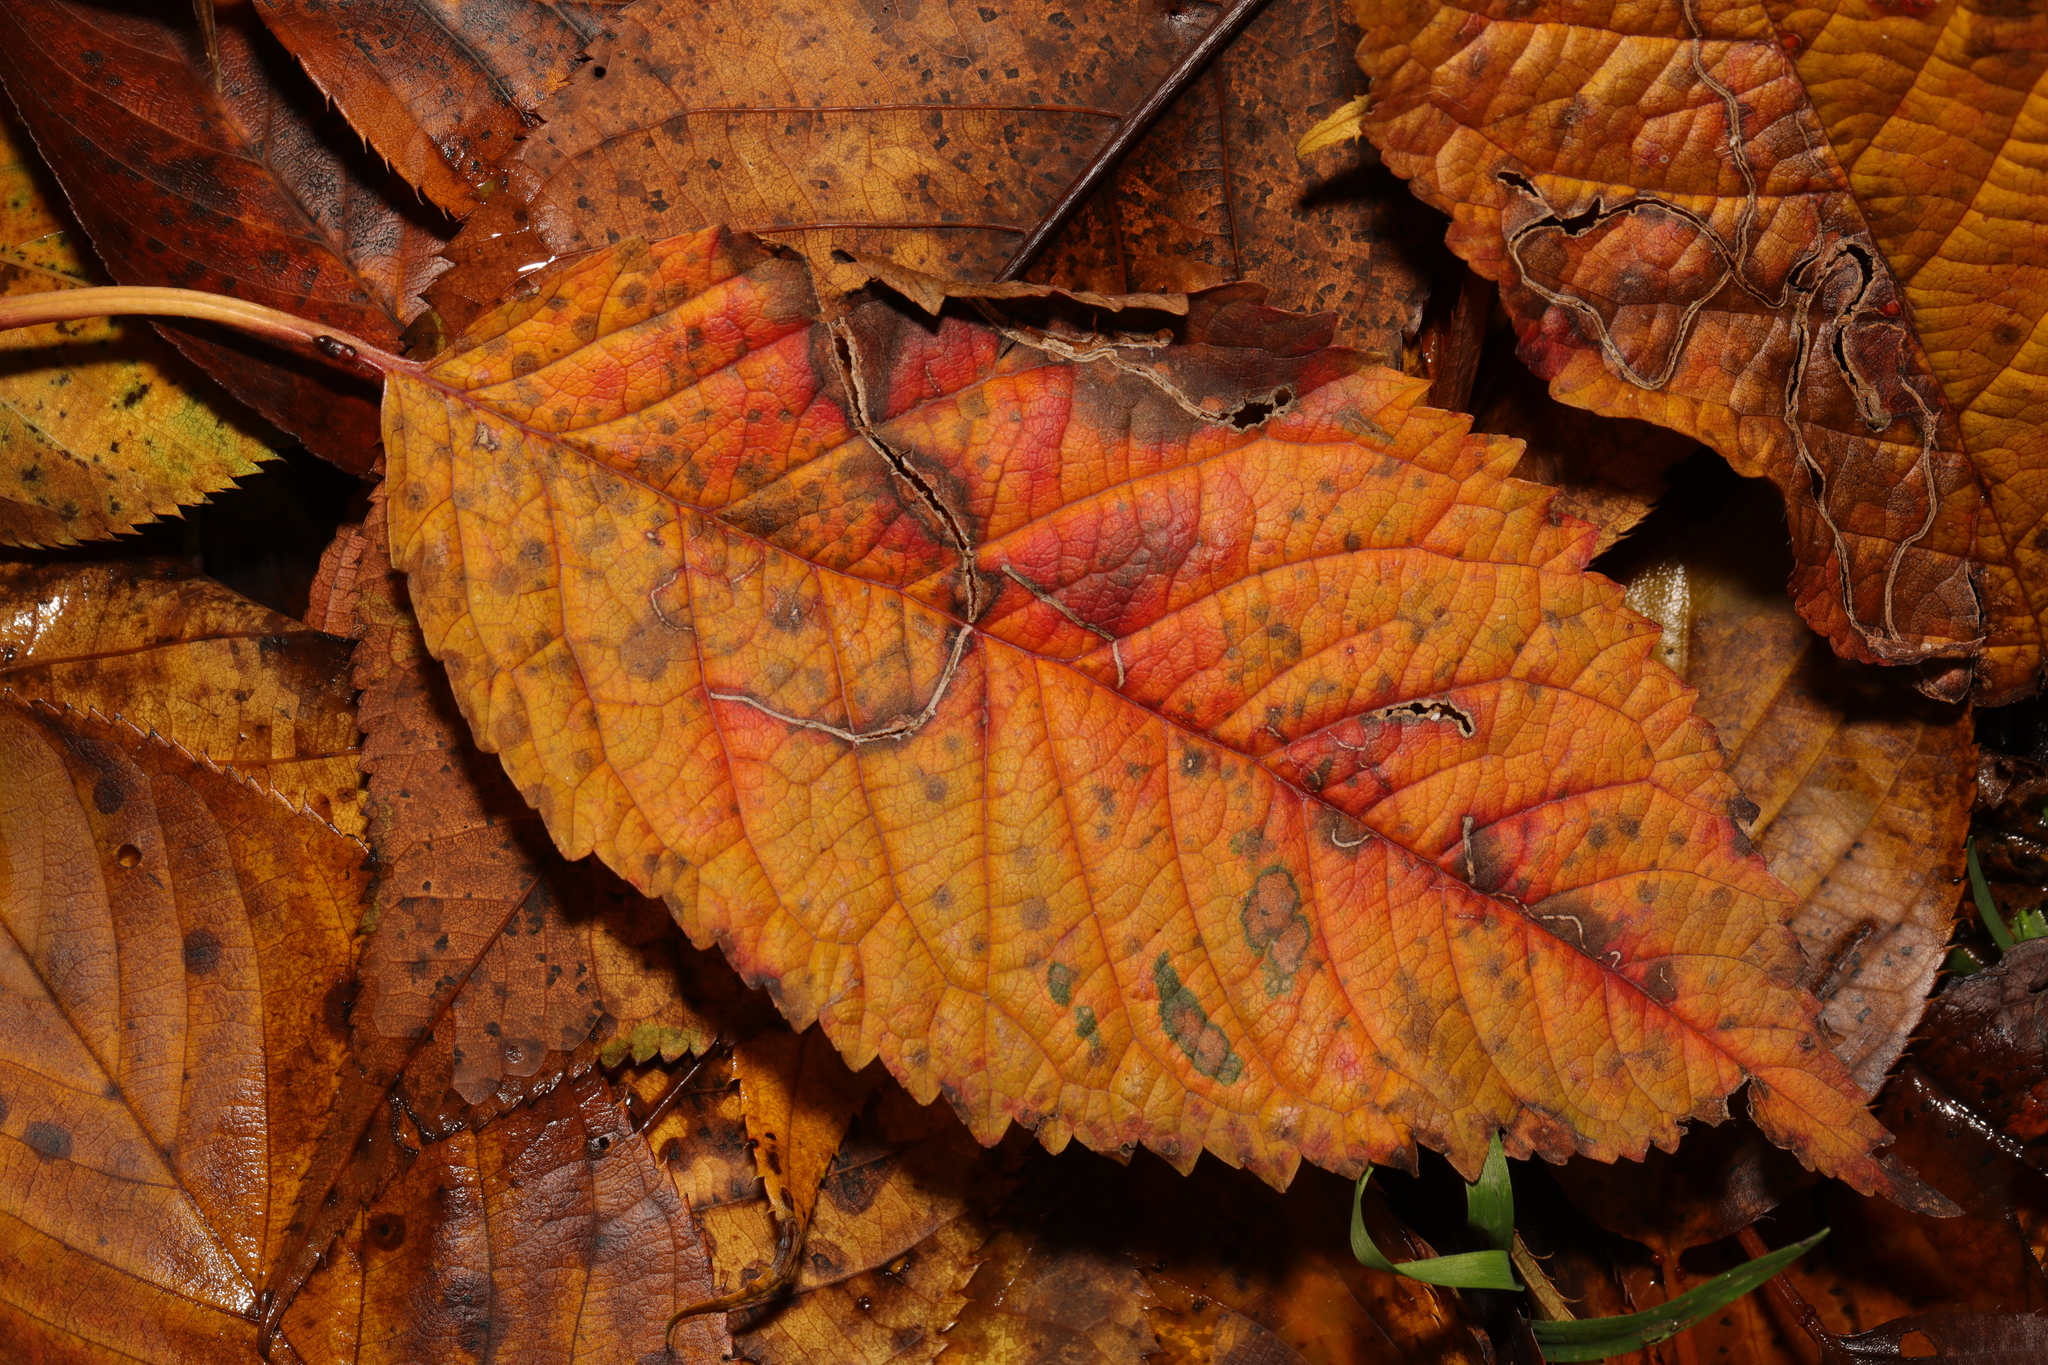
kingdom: Plantae
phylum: Tracheophyta
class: Magnoliopsida
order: Rosales
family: Rosaceae
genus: Prunus
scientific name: Prunus avium
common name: Sweet cherry
